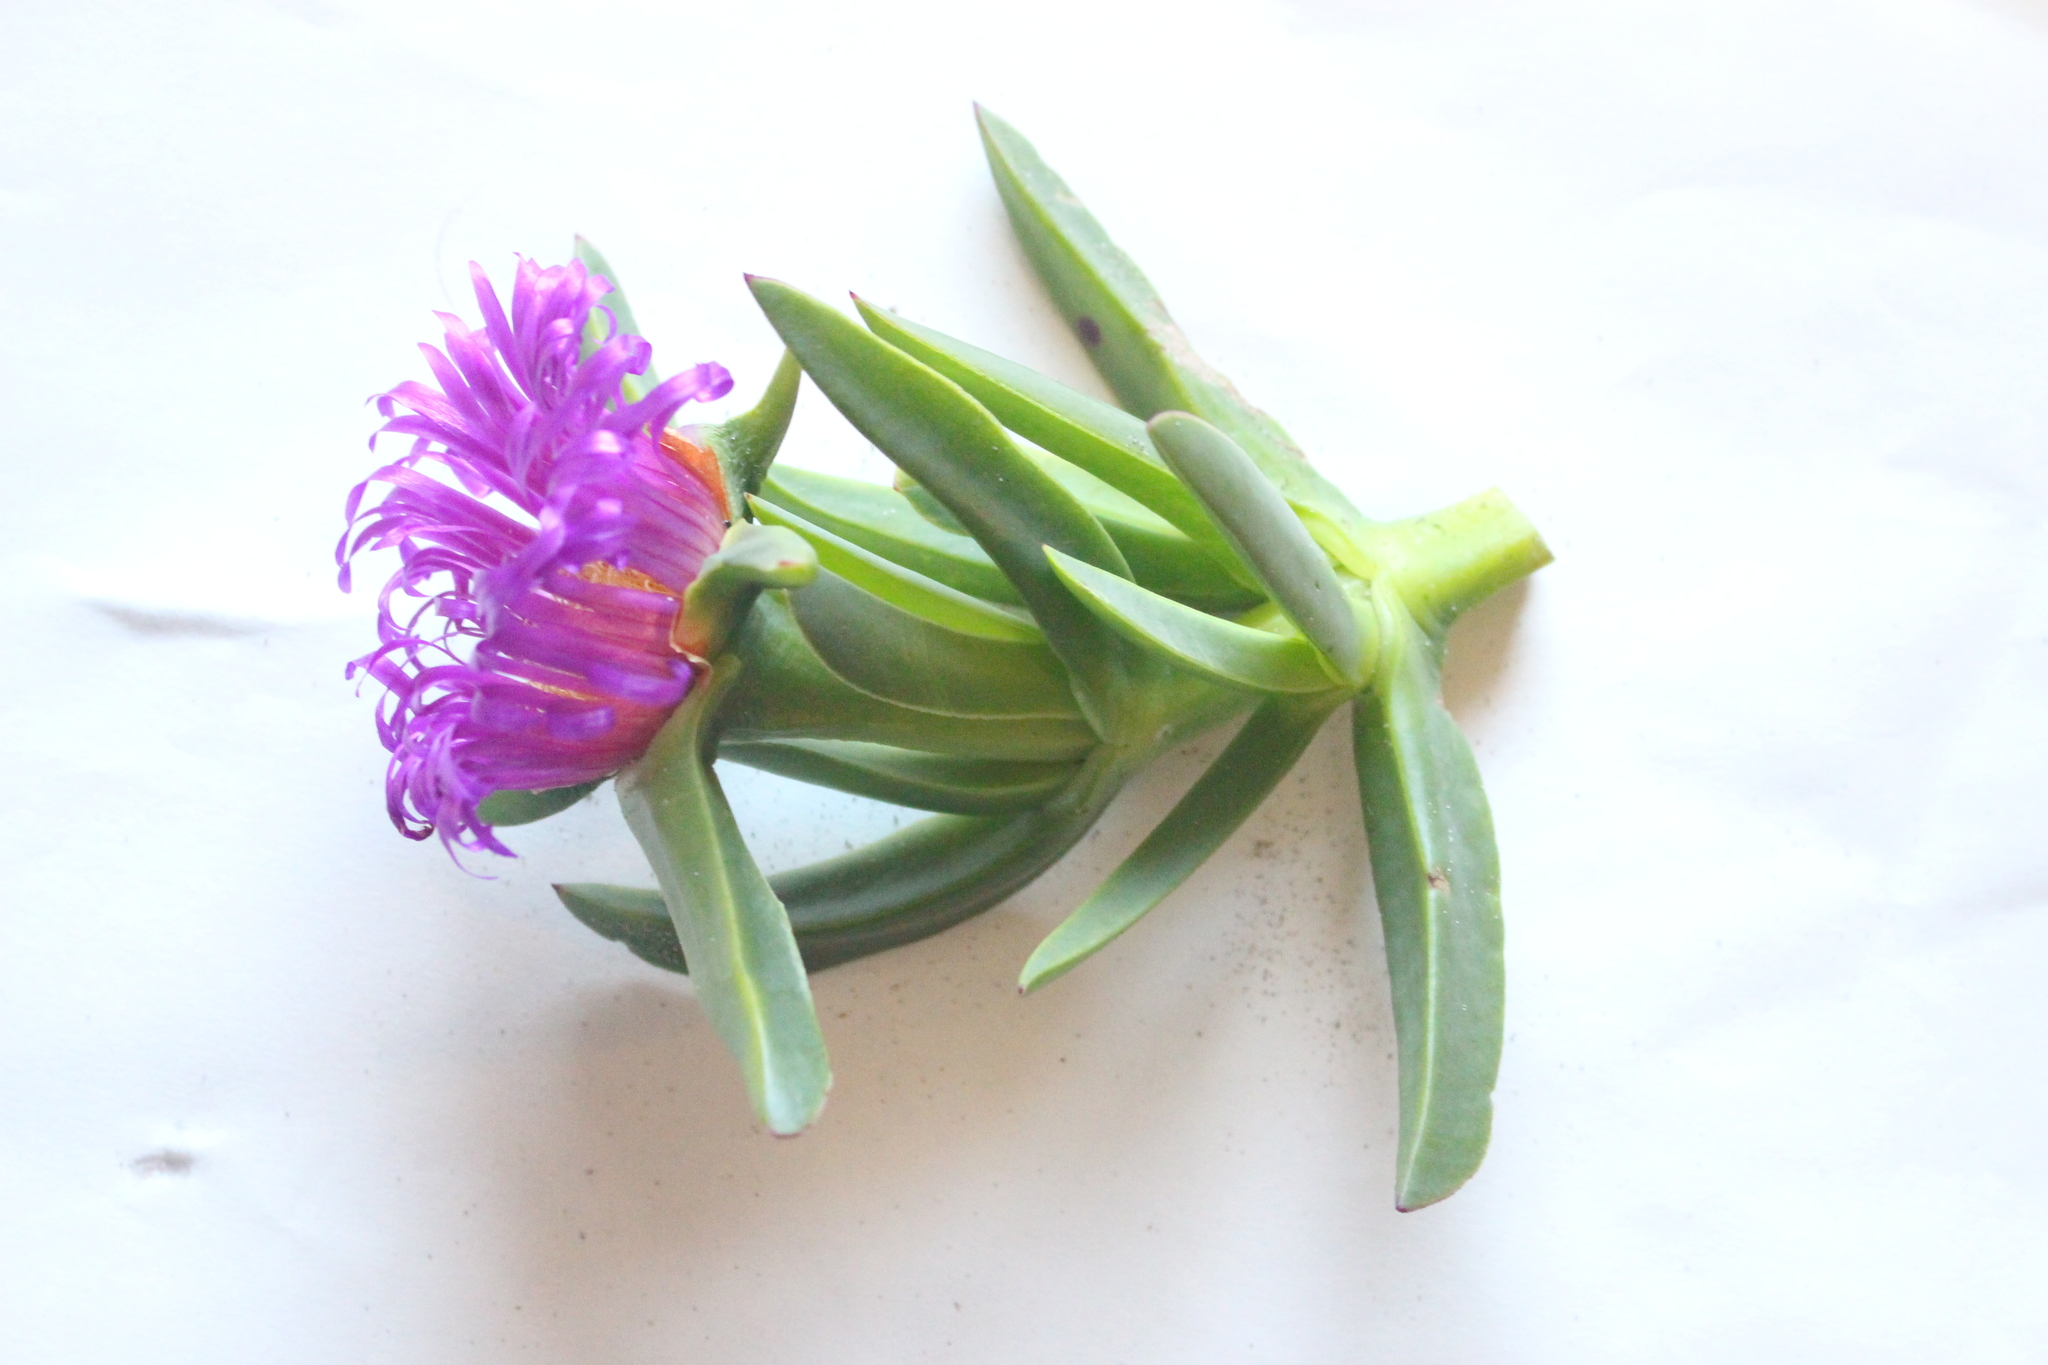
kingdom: Plantae
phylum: Tracheophyta
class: Magnoliopsida
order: Caryophyllales
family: Aizoaceae
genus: Carpobrotus
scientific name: Carpobrotus chilensis
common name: Sea fig
